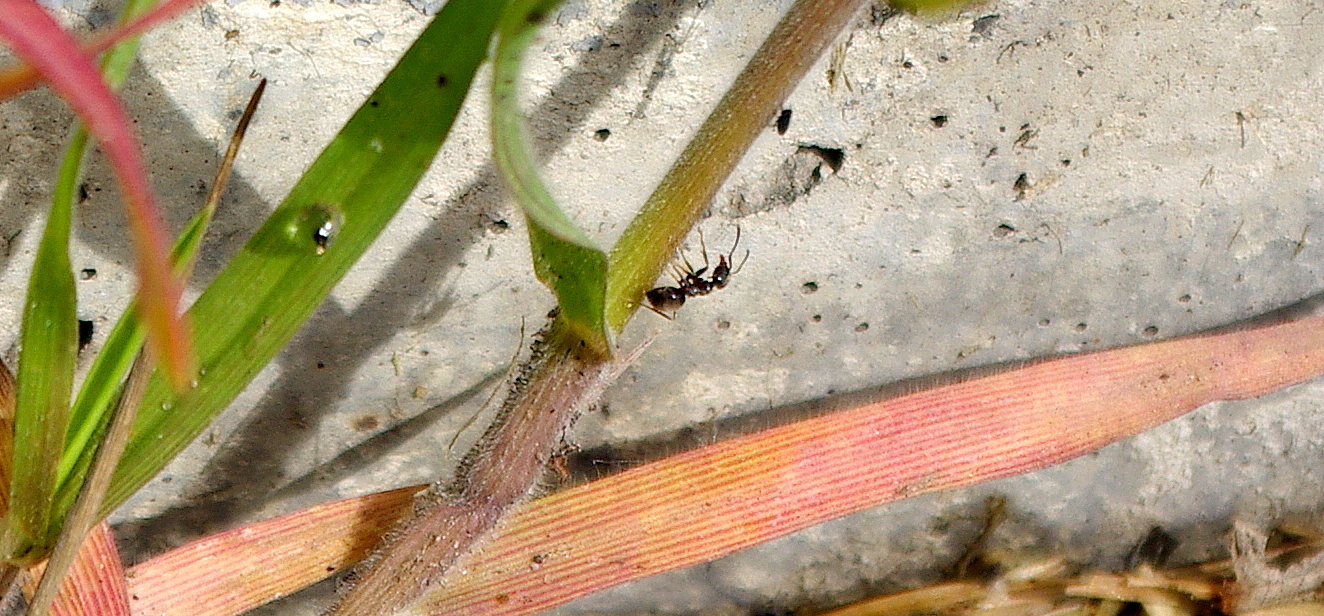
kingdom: Animalia
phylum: Arthropoda
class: Insecta
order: Hymenoptera
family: Formicidae
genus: Lasius
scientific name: Lasius
